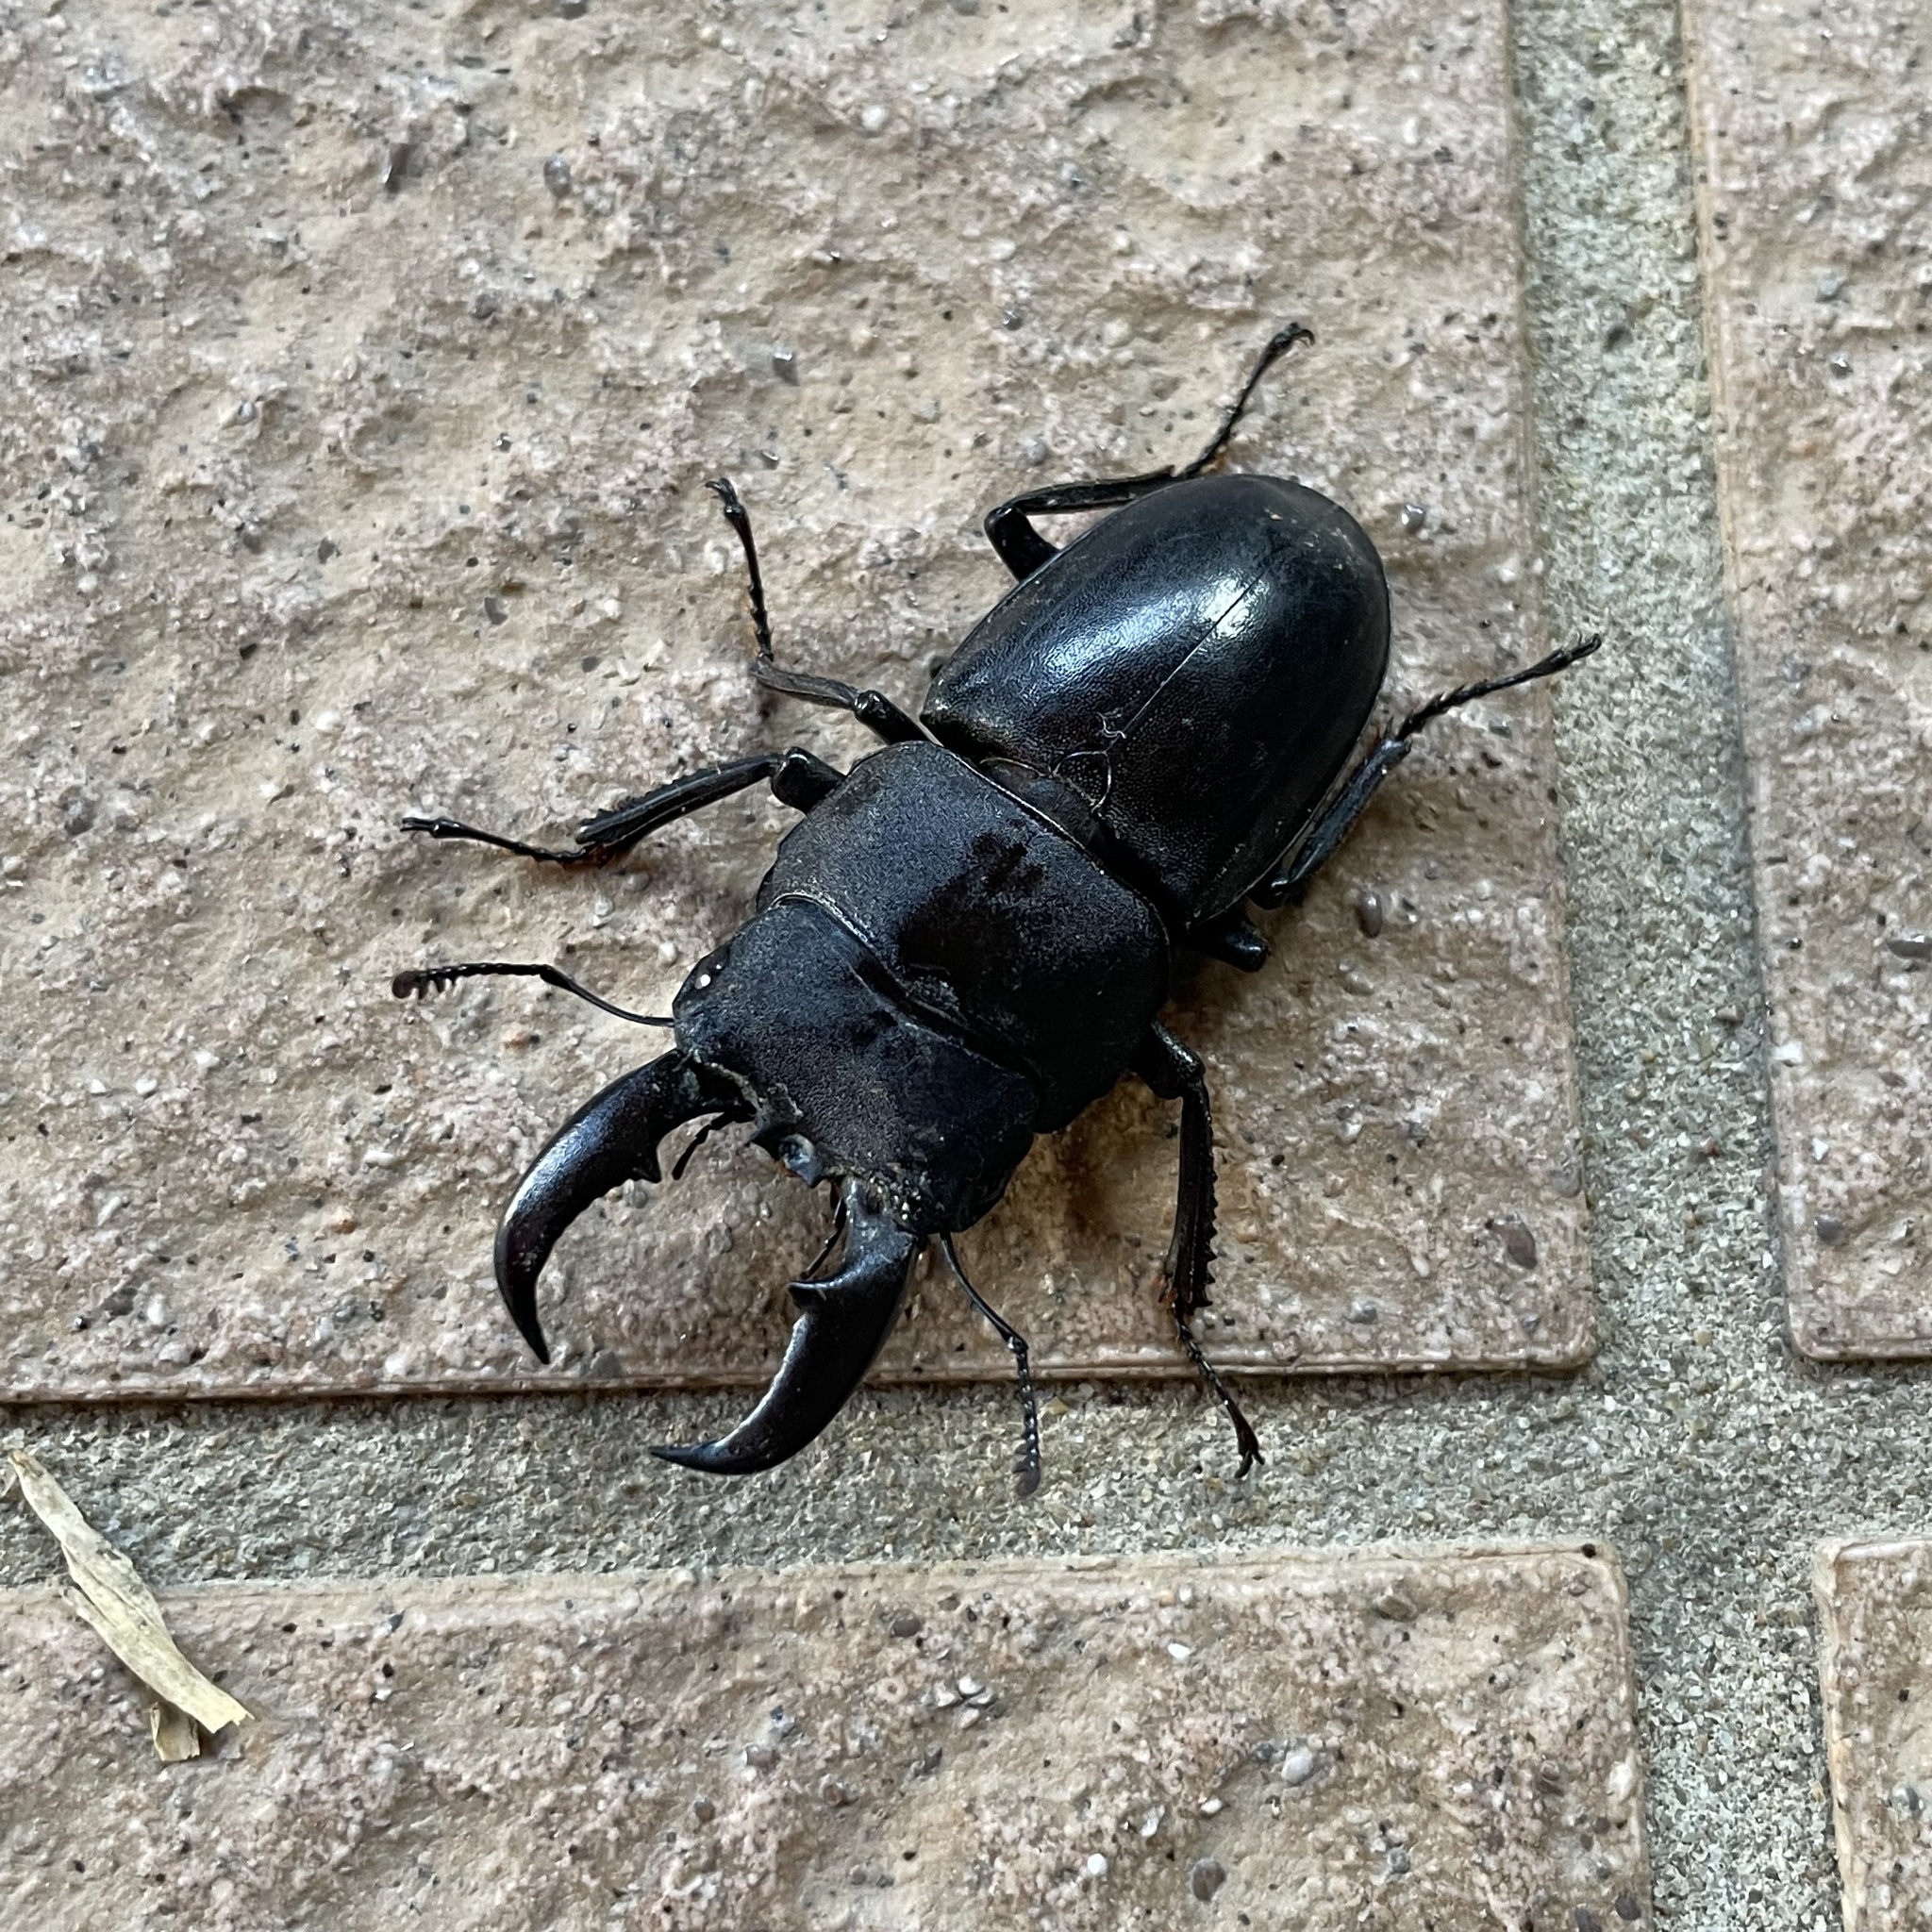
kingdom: Animalia
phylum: Arthropoda
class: Insecta
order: Coleoptera
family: Lucanidae
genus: Serrognathus
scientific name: Serrognathus titanus
